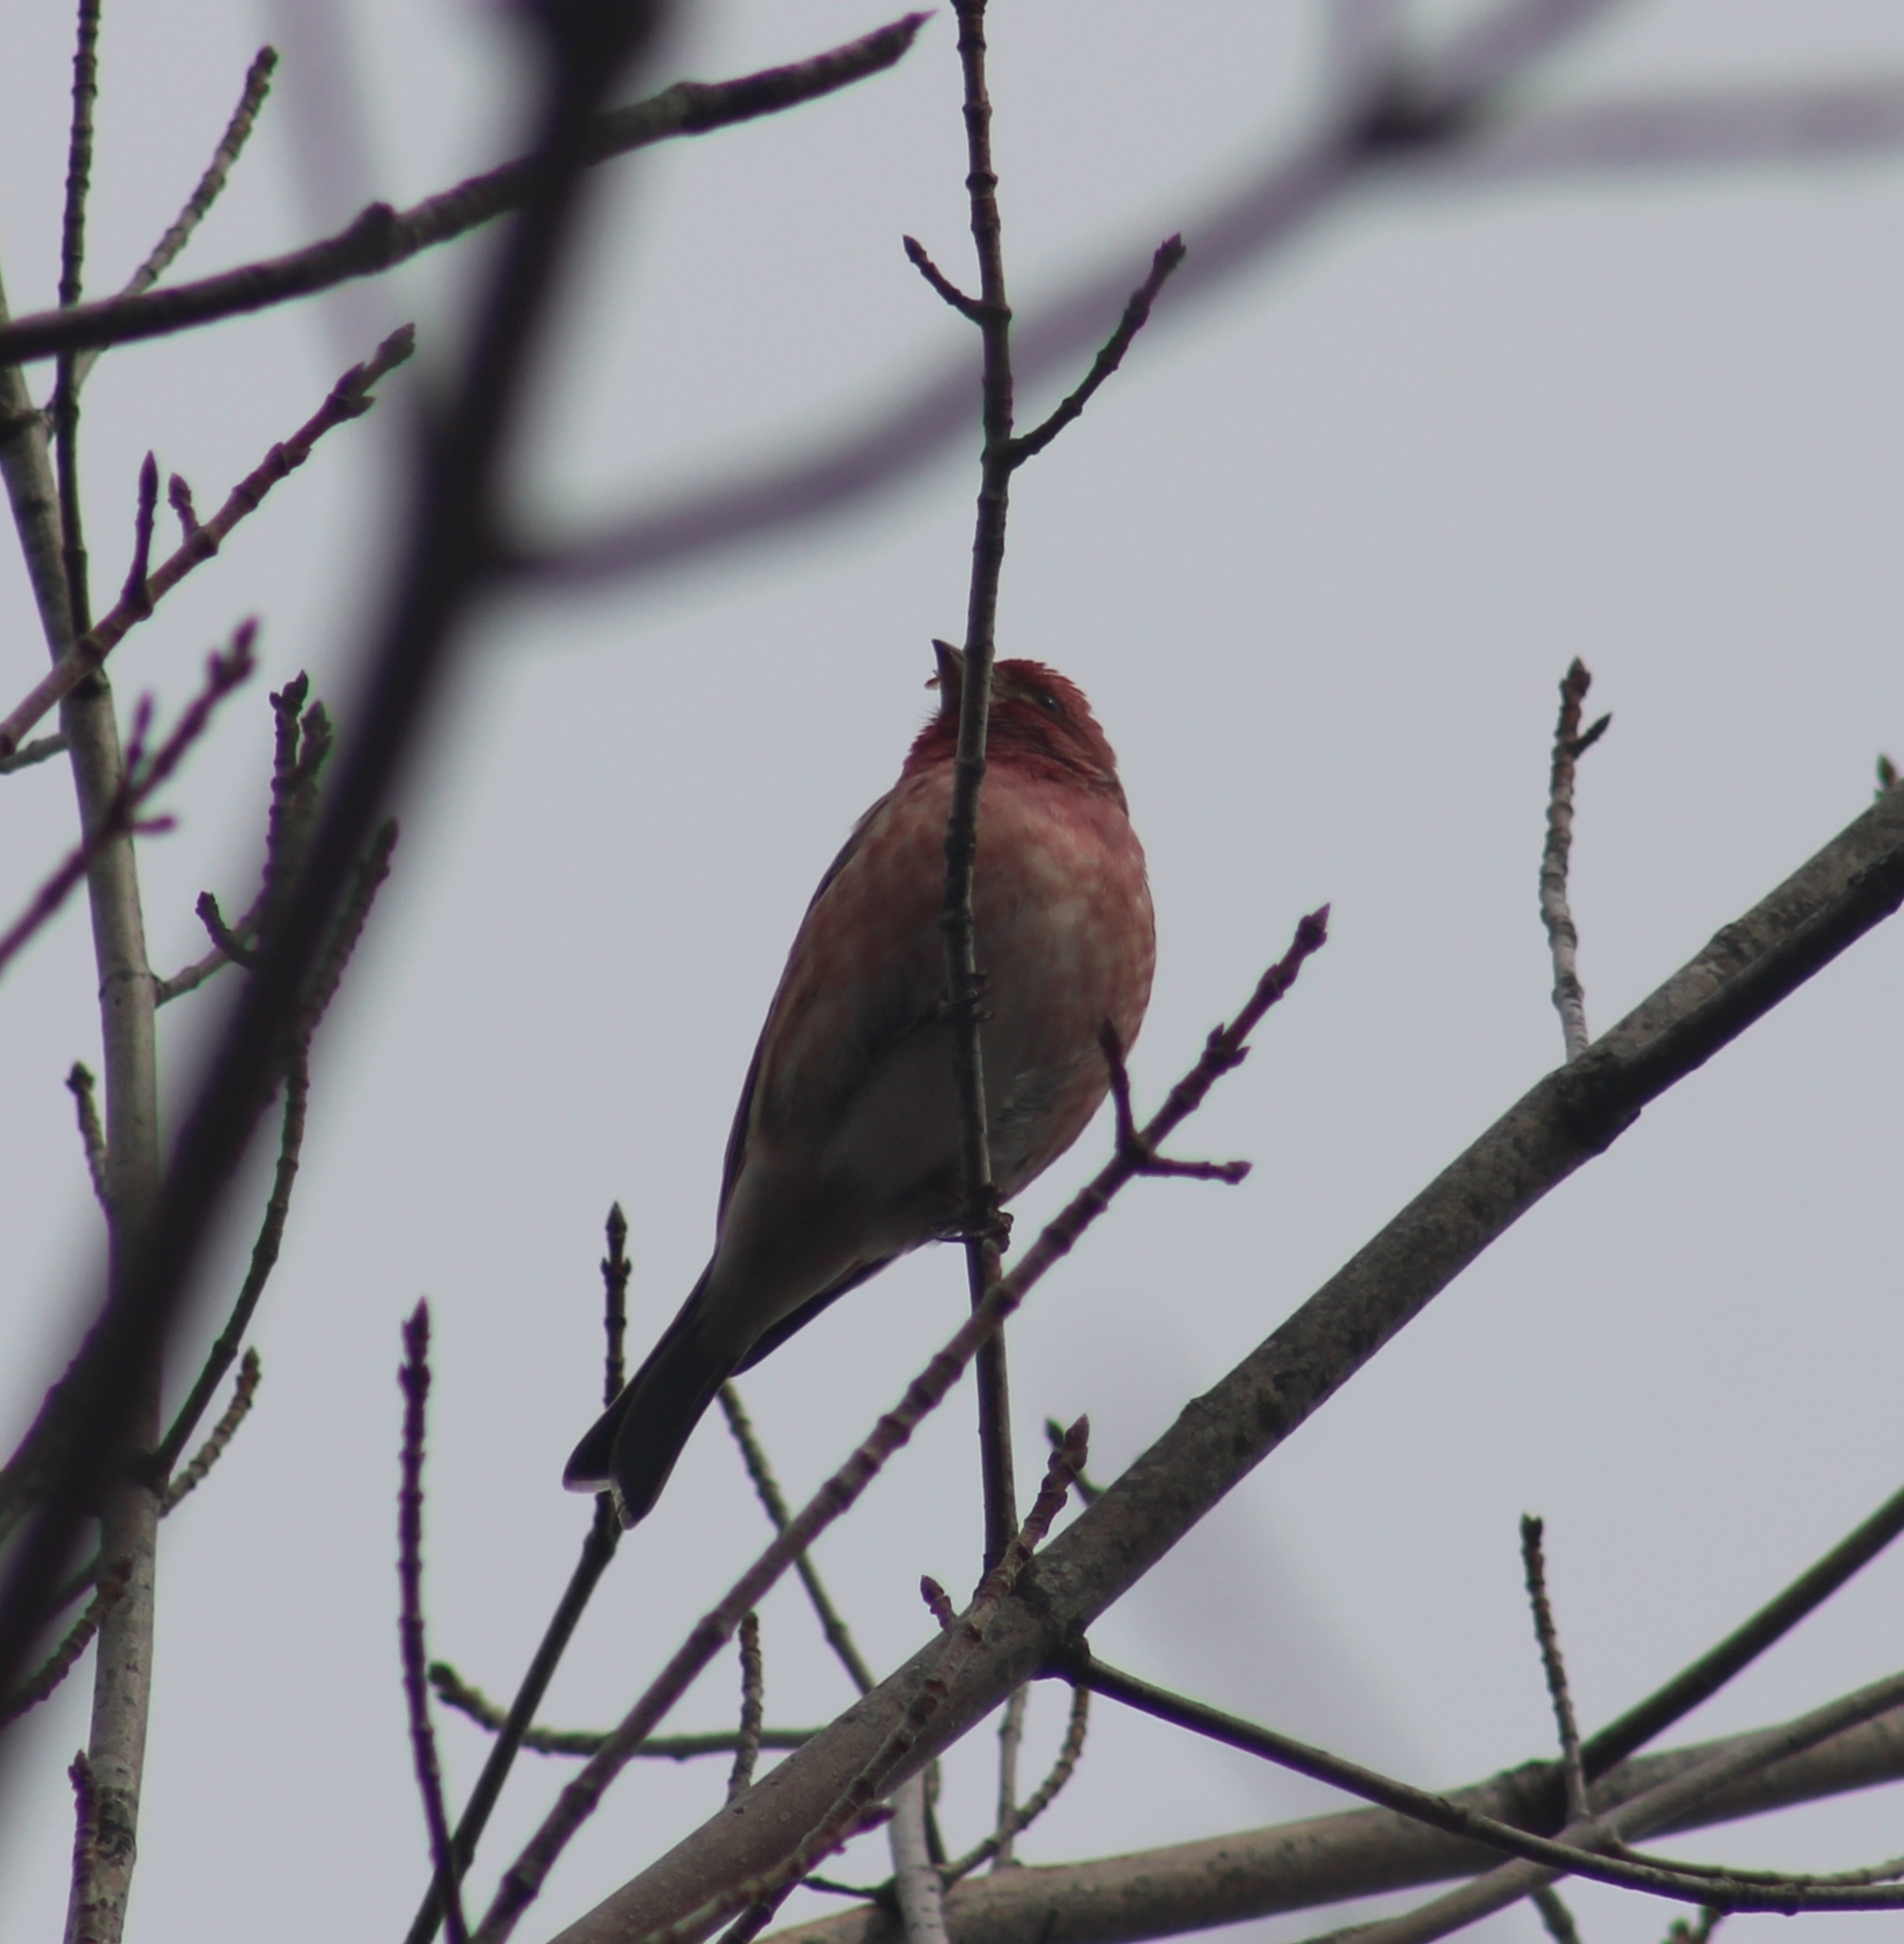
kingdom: Animalia
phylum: Chordata
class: Aves
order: Passeriformes
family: Fringillidae
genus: Haemorhous
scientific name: Haemorhous purpureus
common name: Purple finch
